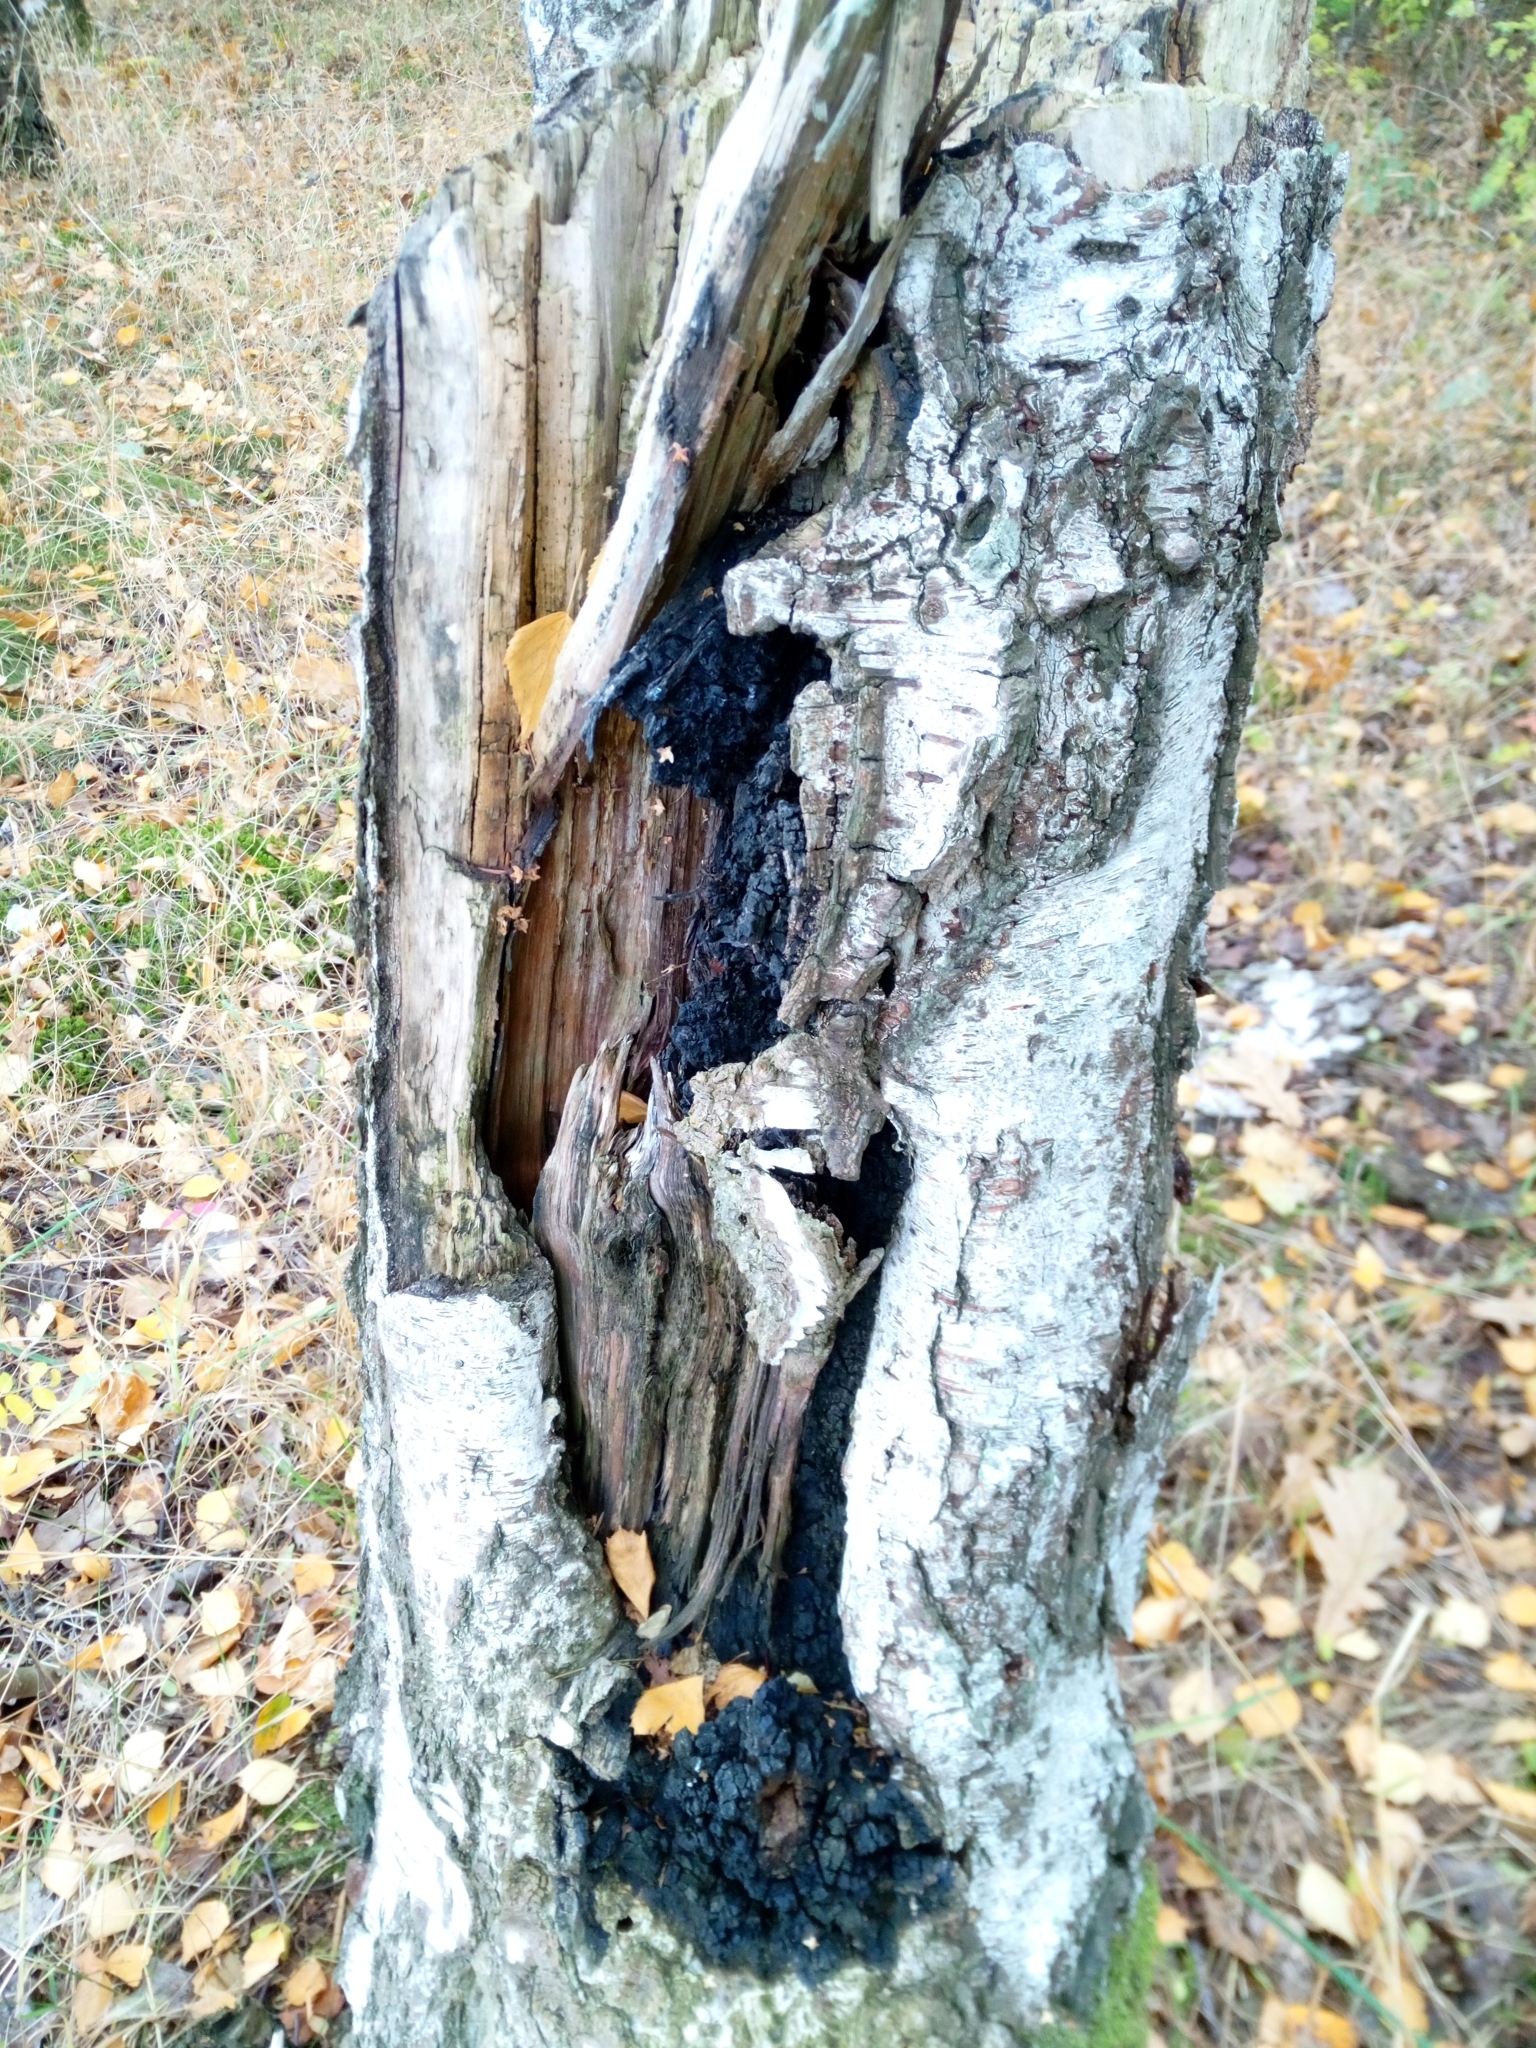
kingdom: Fungi
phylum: Basidiomycota
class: Agaricomycetes
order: Hymenochaetales
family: Hymenochaetaceae
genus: Inonotus
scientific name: Inonotus obliquus
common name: Chaga
